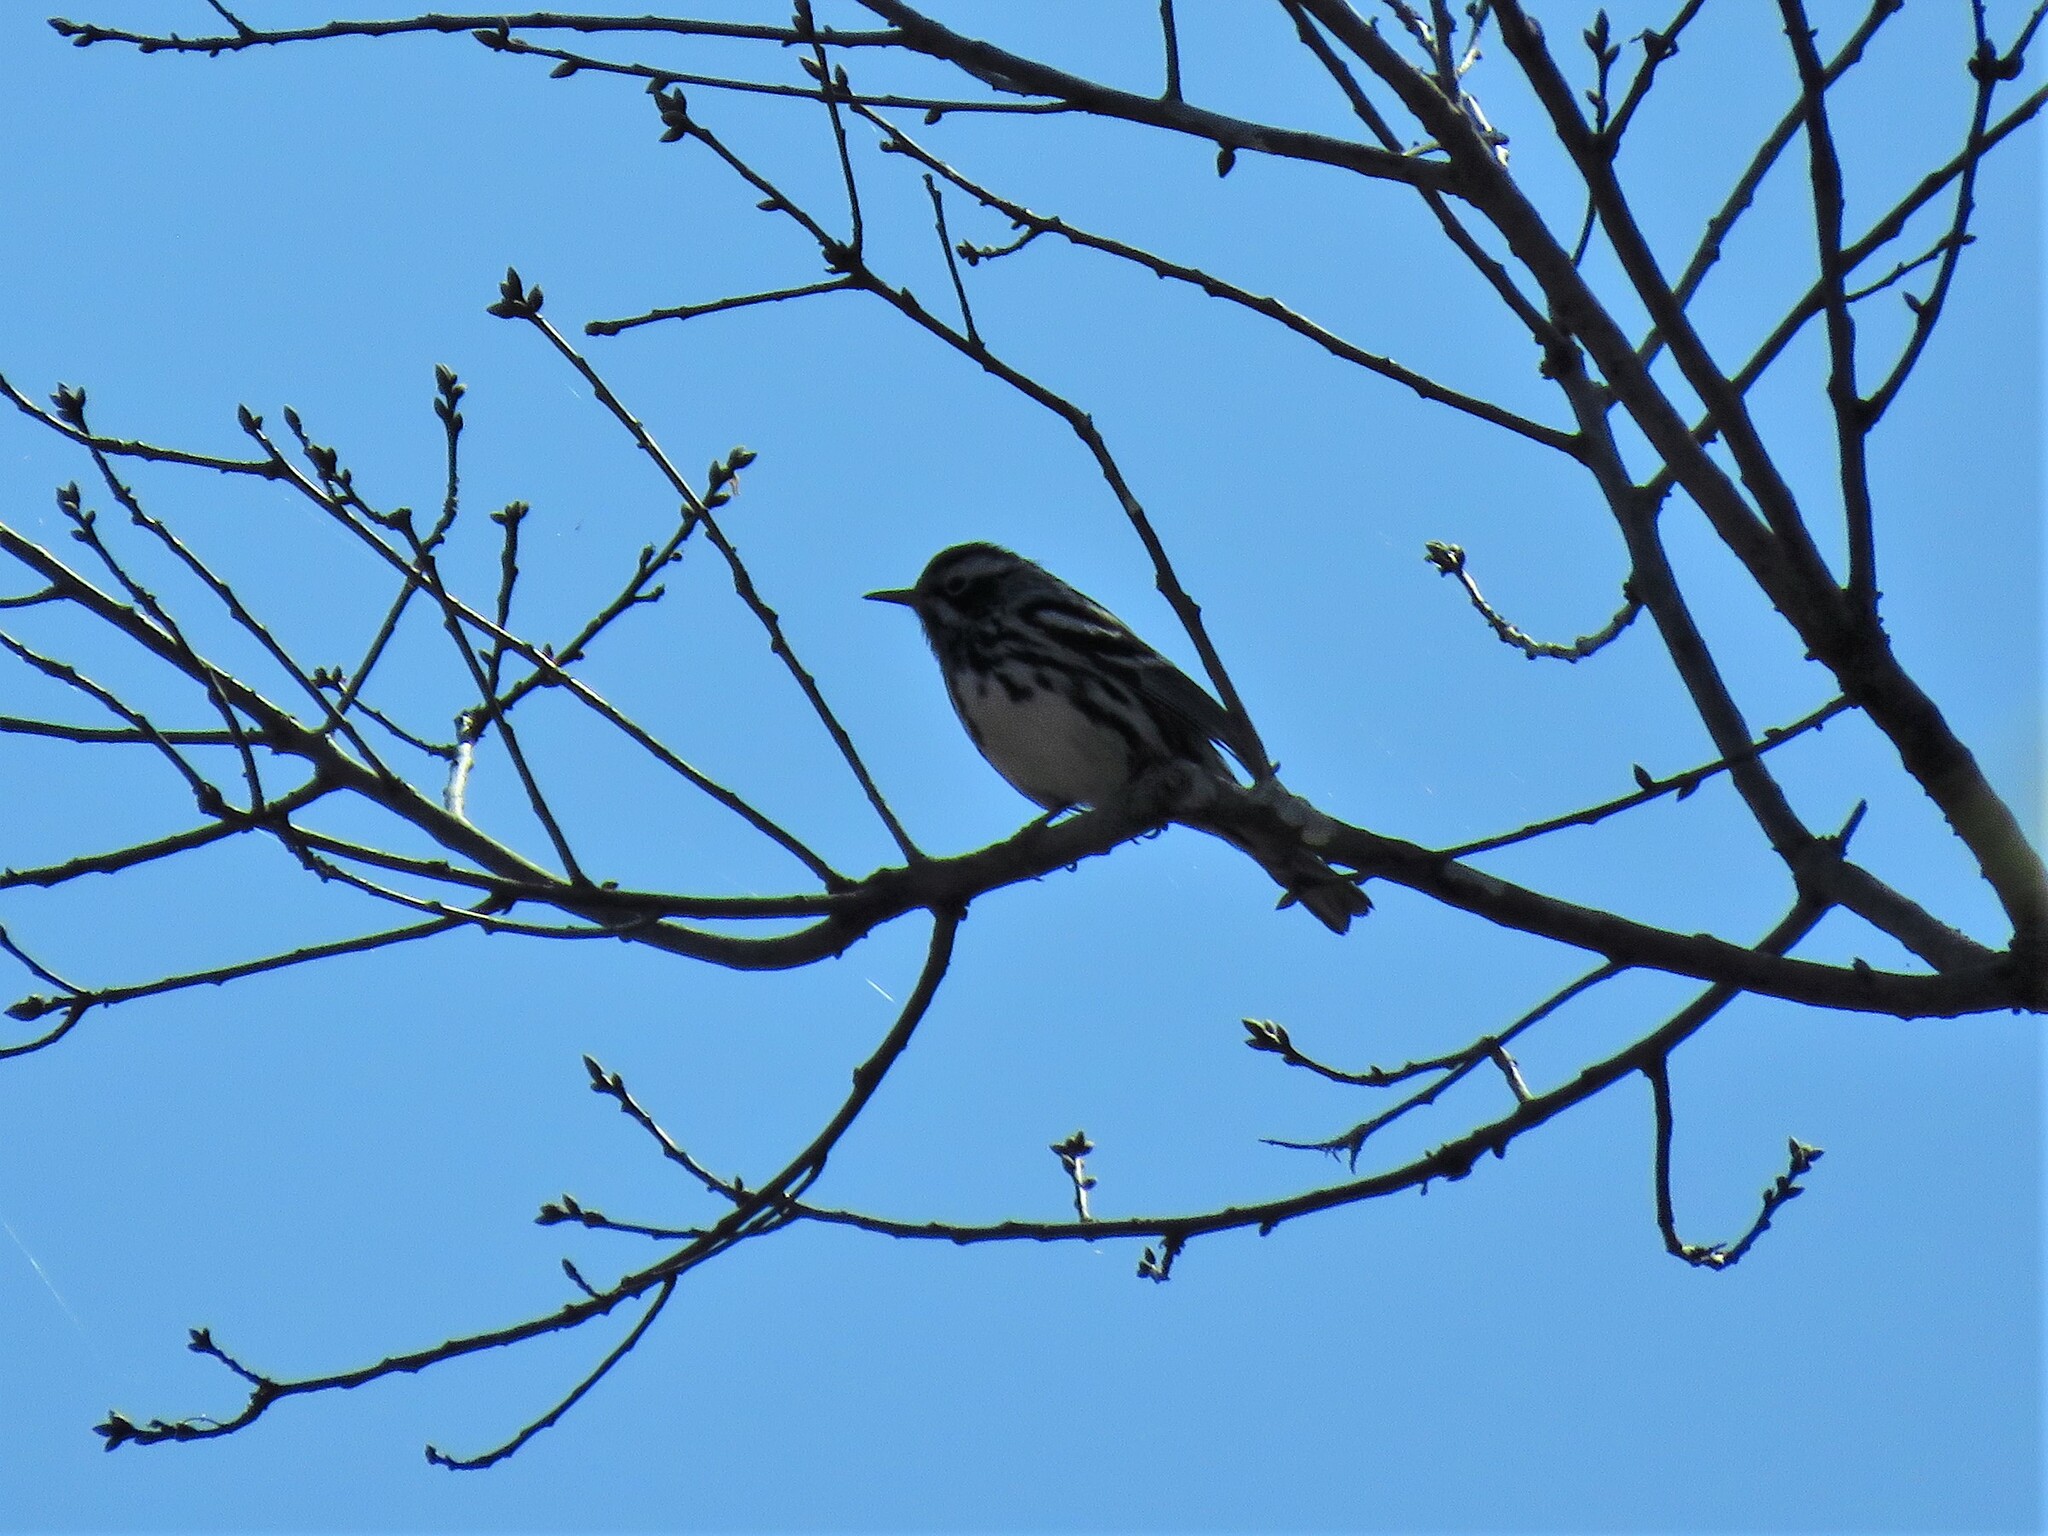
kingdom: Animalia
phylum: Chordata
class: Aves
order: Passeriformes
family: Parulidae
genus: Mniotilta
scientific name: Mniotilta varia
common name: Black-and-white warbler
